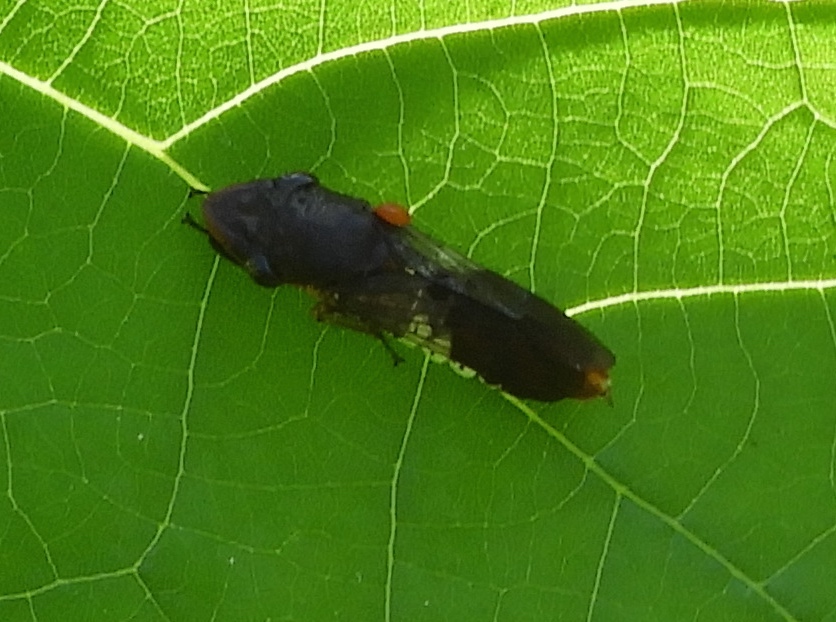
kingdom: Animalia
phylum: Arthropoda
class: Insecta
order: Hemiptera
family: Cicadellidae
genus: Homalodisca
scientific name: Homalodisca
